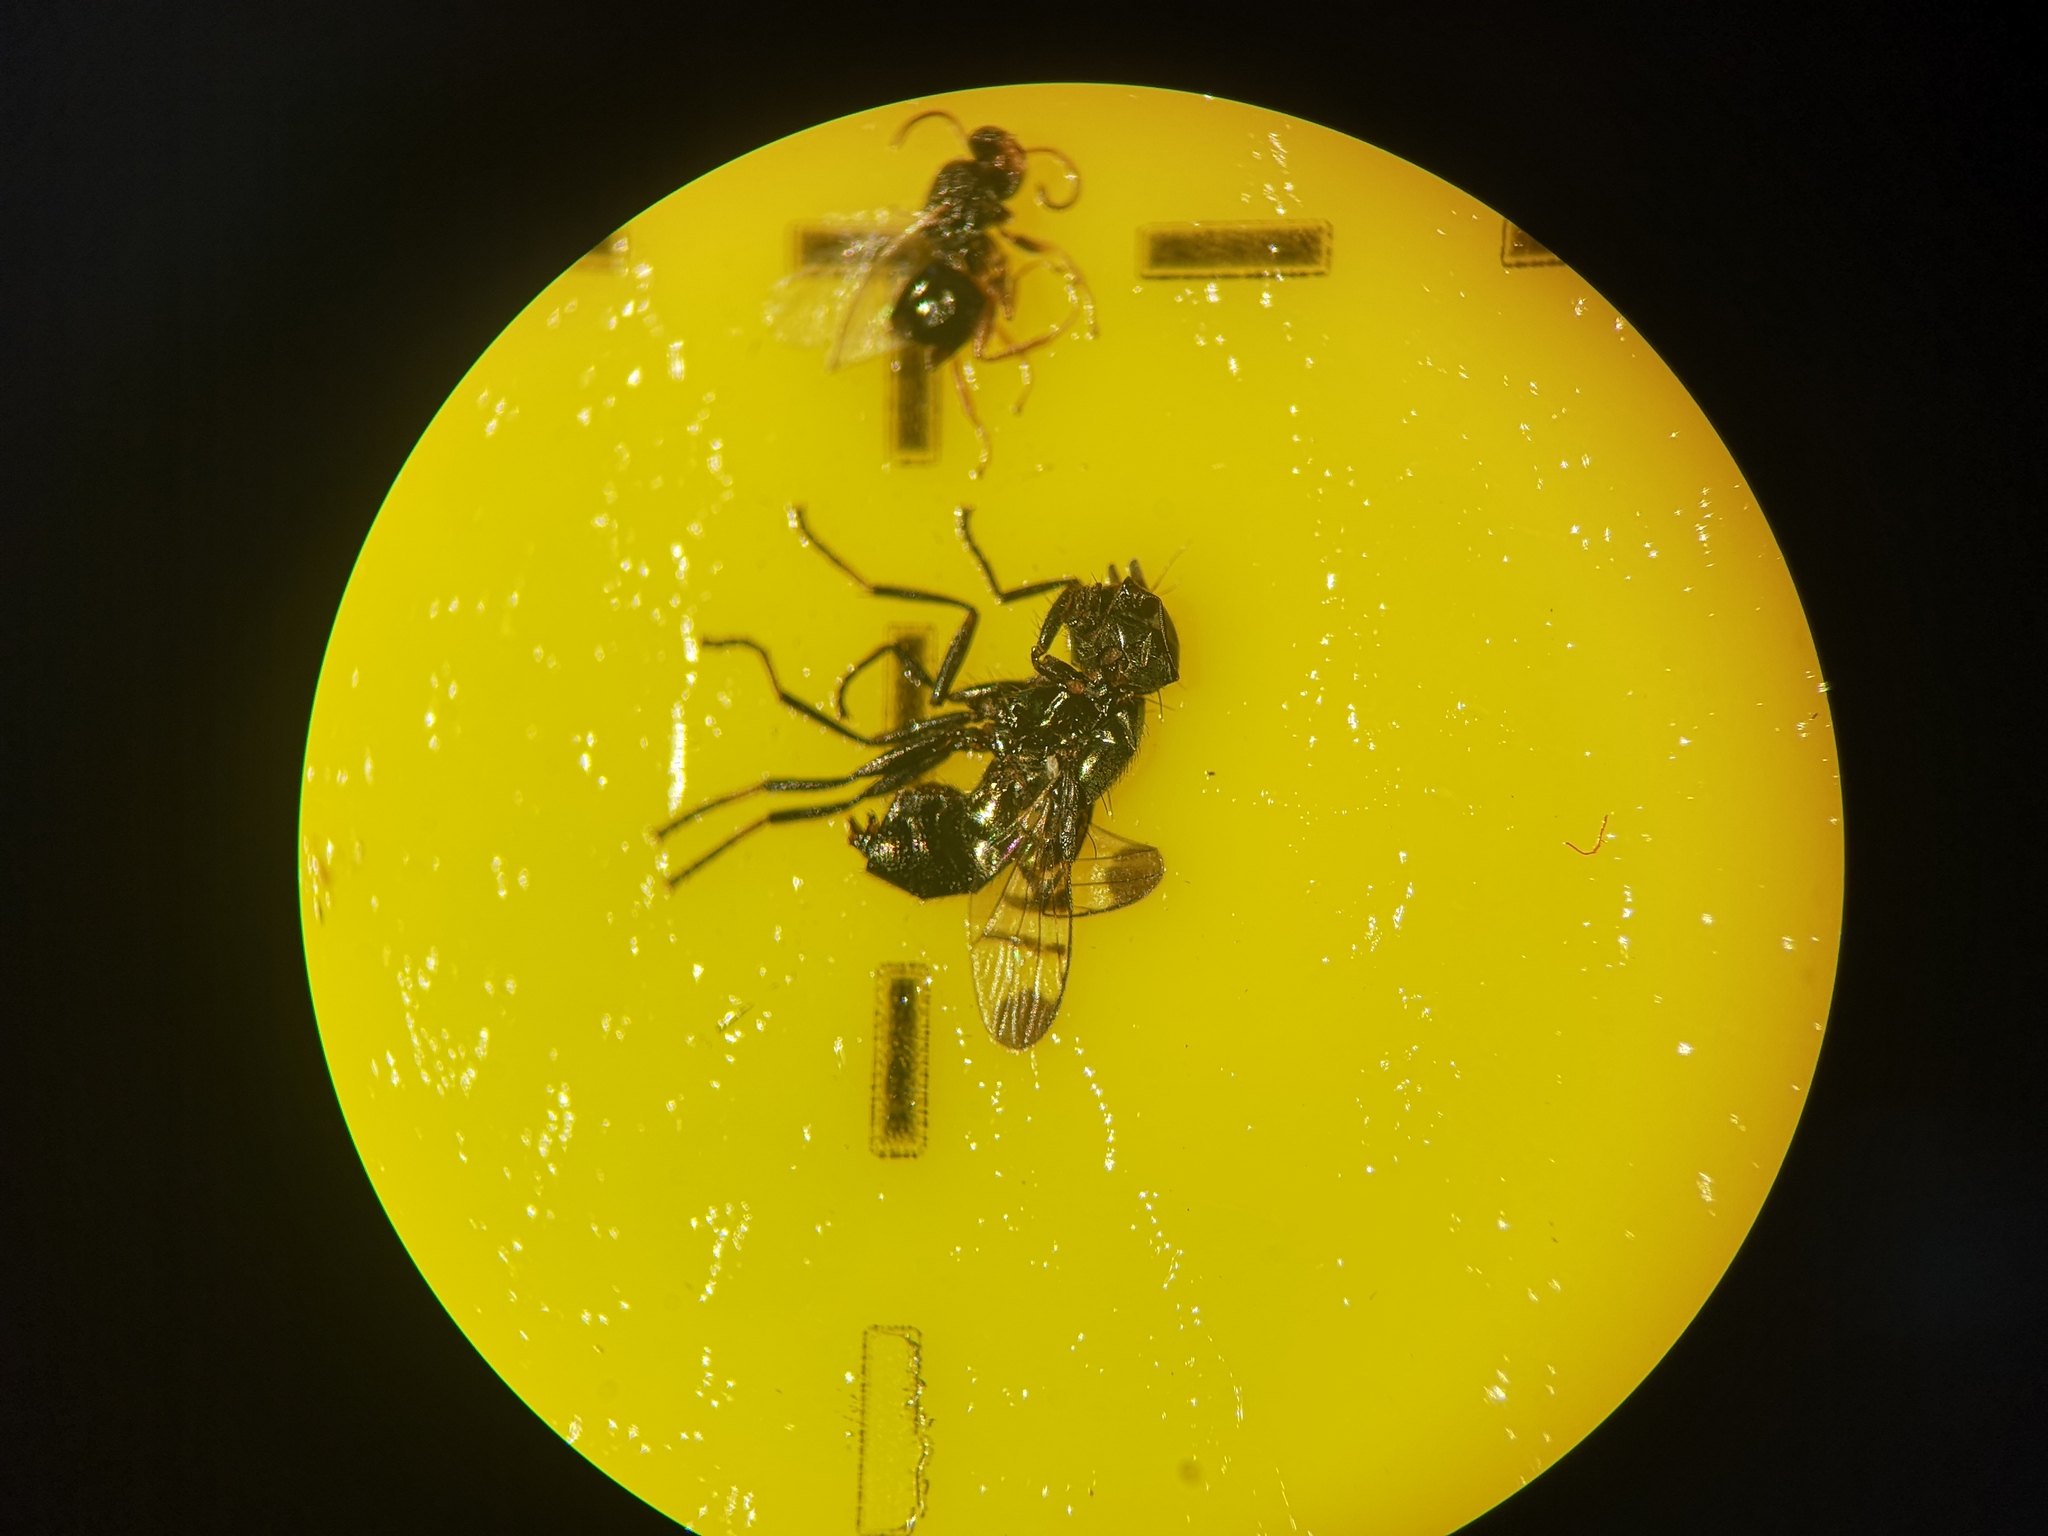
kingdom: Animalia
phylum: Arthropoda
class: Insecta
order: Diptera
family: Platystomatidae
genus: Rivellia
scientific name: Rivellia syngenesiae
